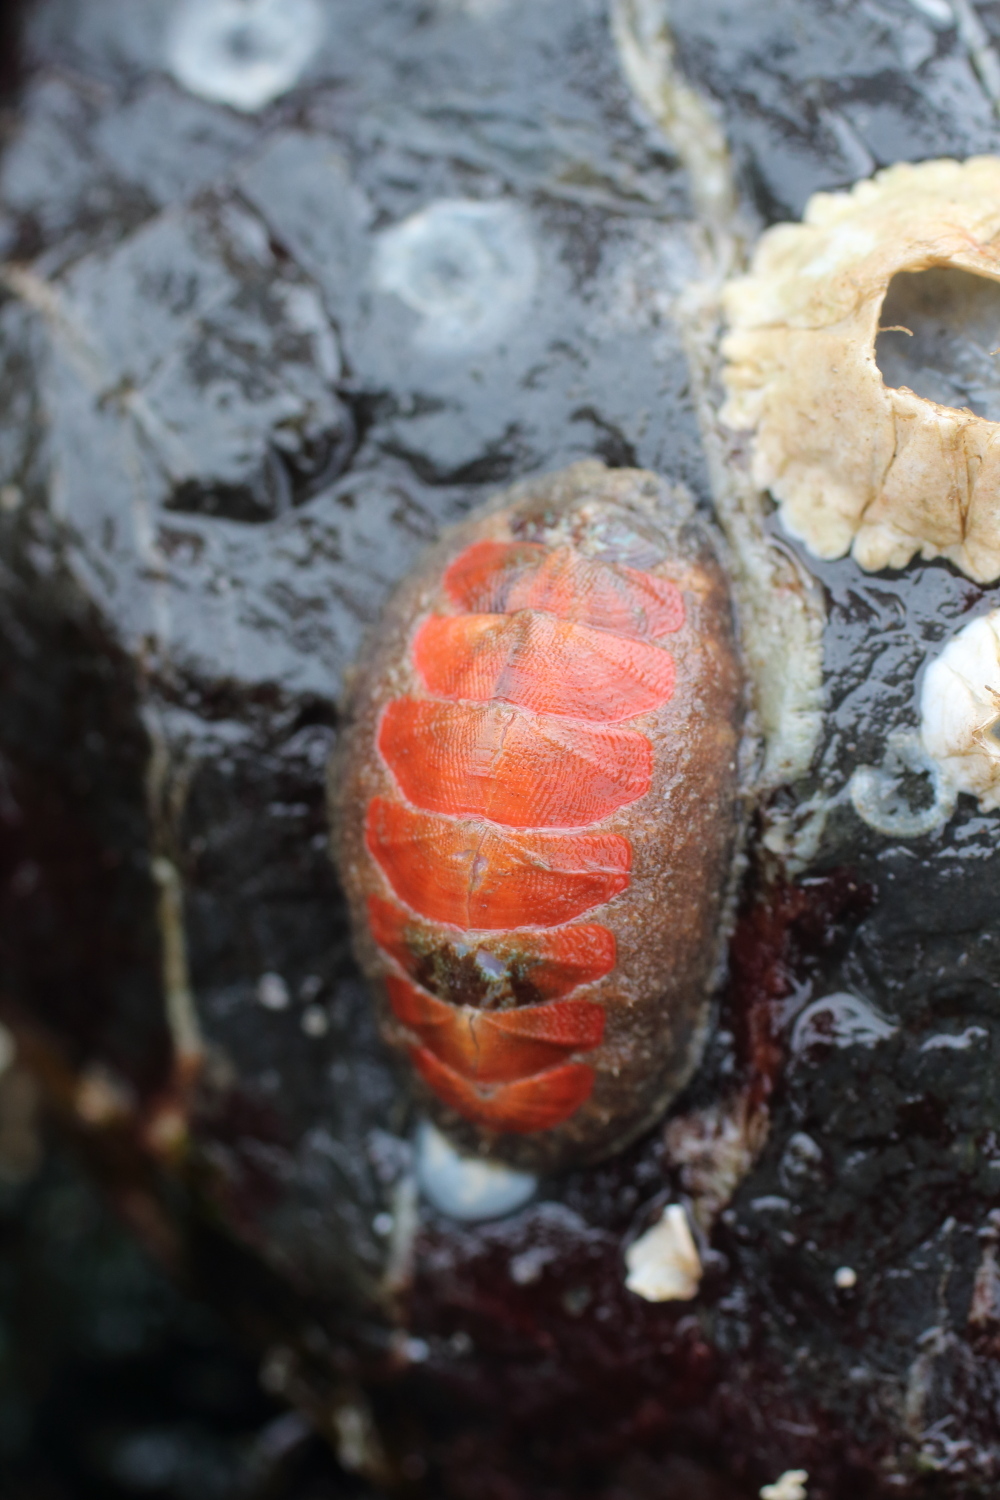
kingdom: Animalia
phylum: Mollusca
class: Polyplacophora
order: Chitonida
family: Mopaliidae
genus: Mopalia
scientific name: Mopalia swanii
